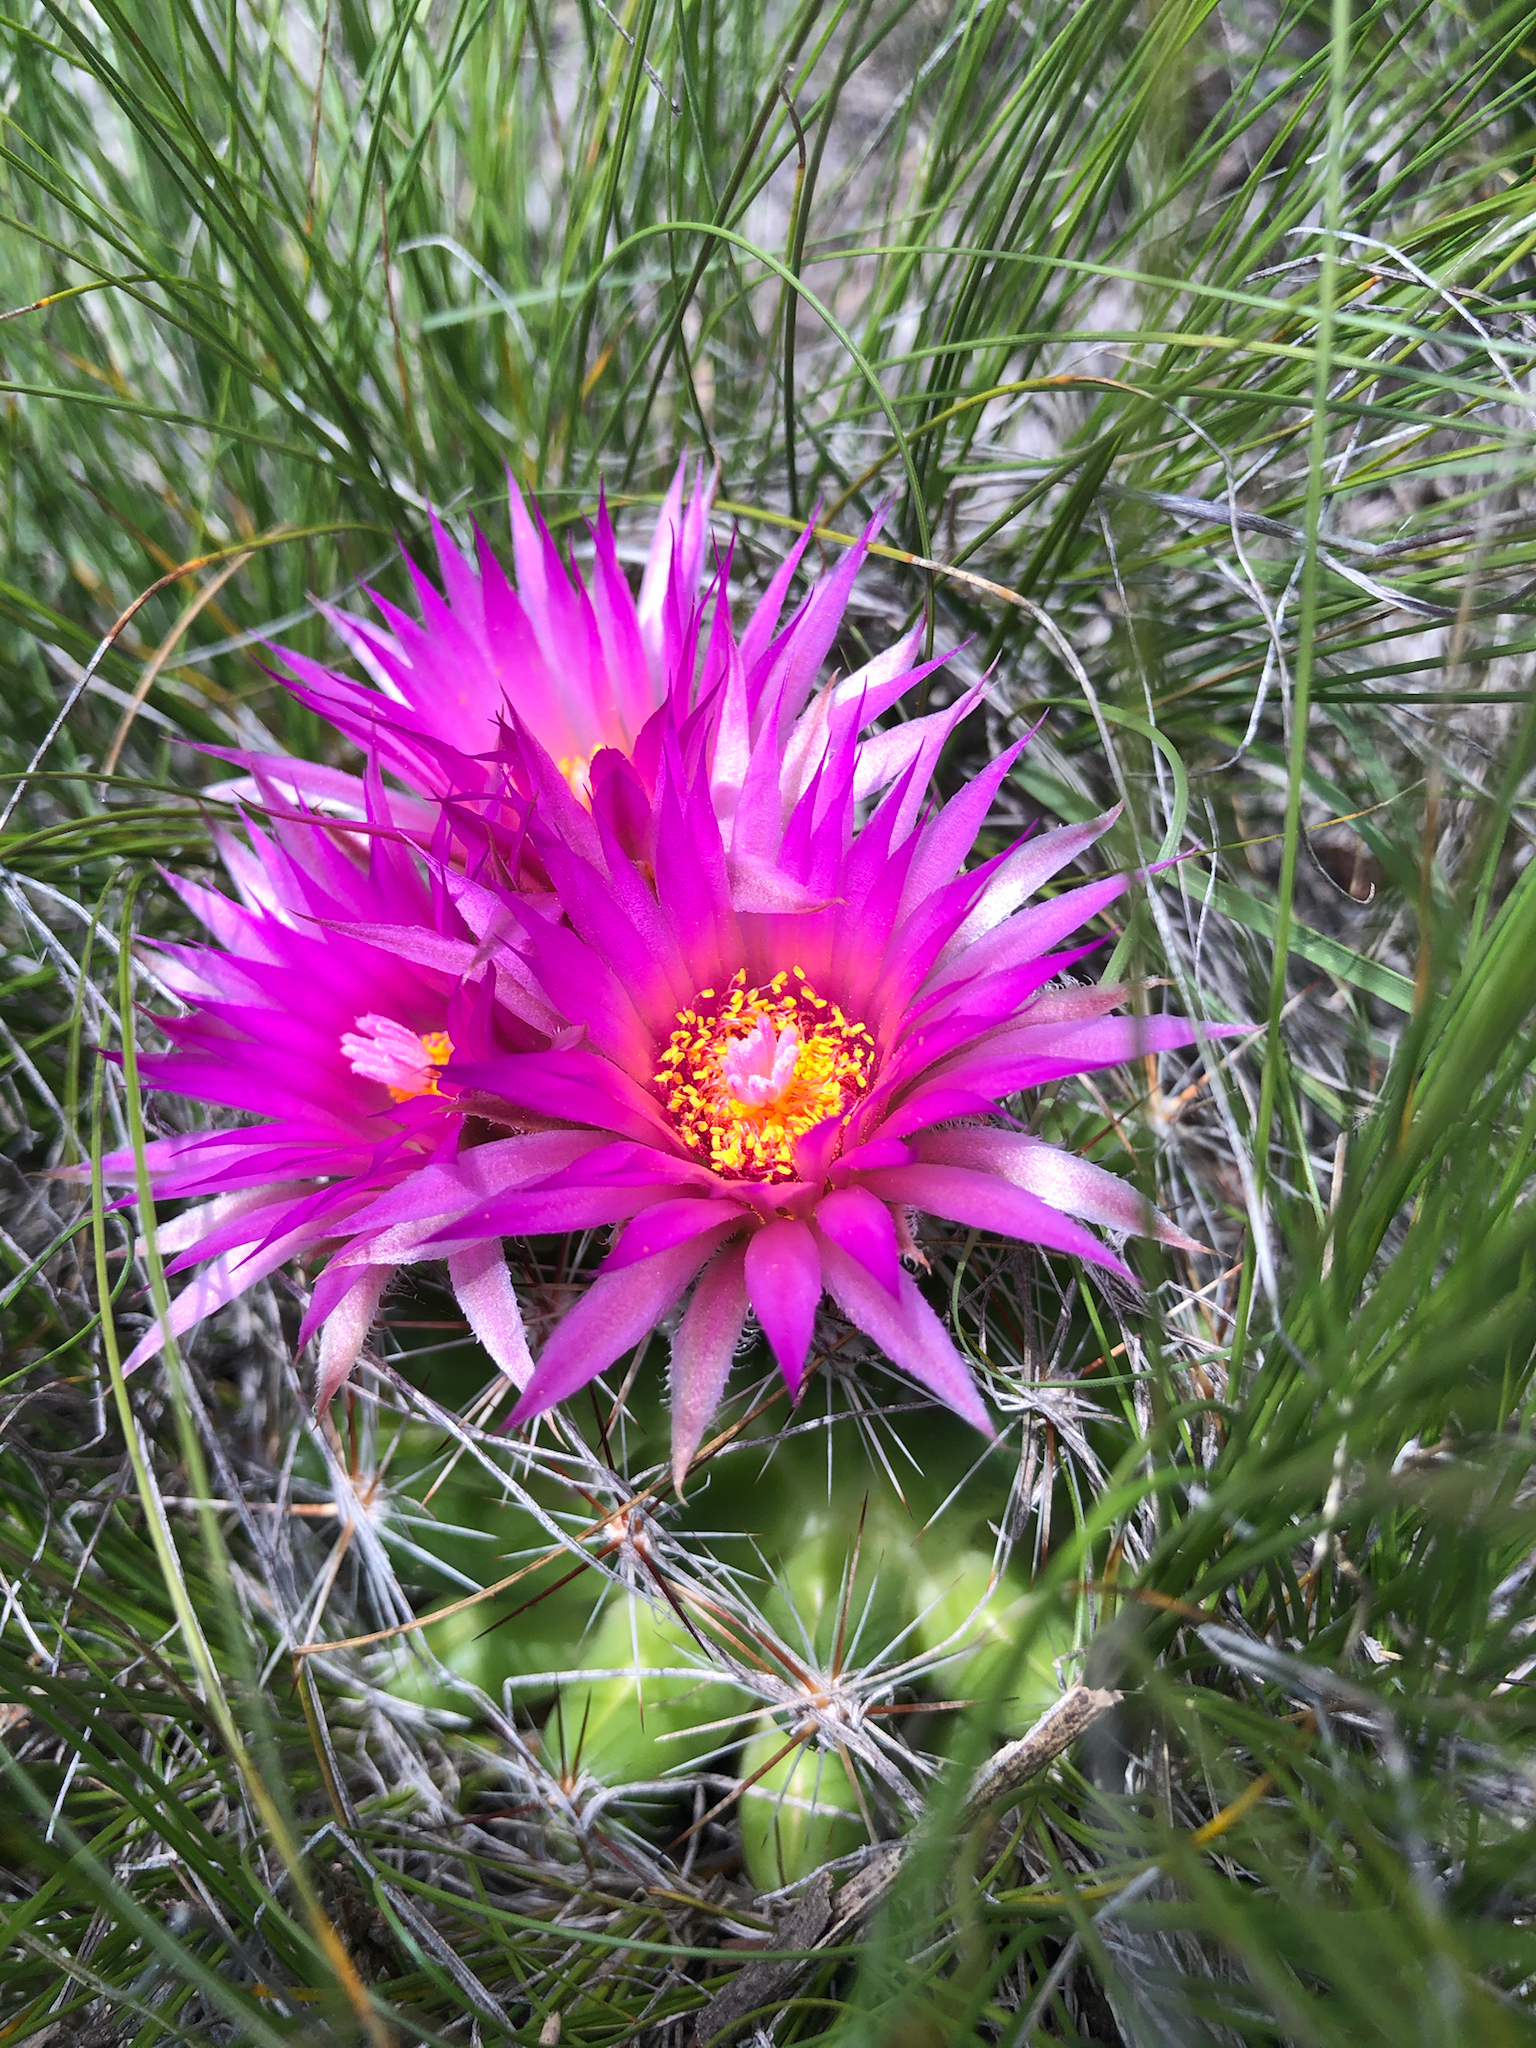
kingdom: Plantae
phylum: Tracheophyta
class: Magnoliopsida
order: Caryophyllales
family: Cactaceae
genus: Pelecyphora
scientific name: Pelecyphora vivipara
